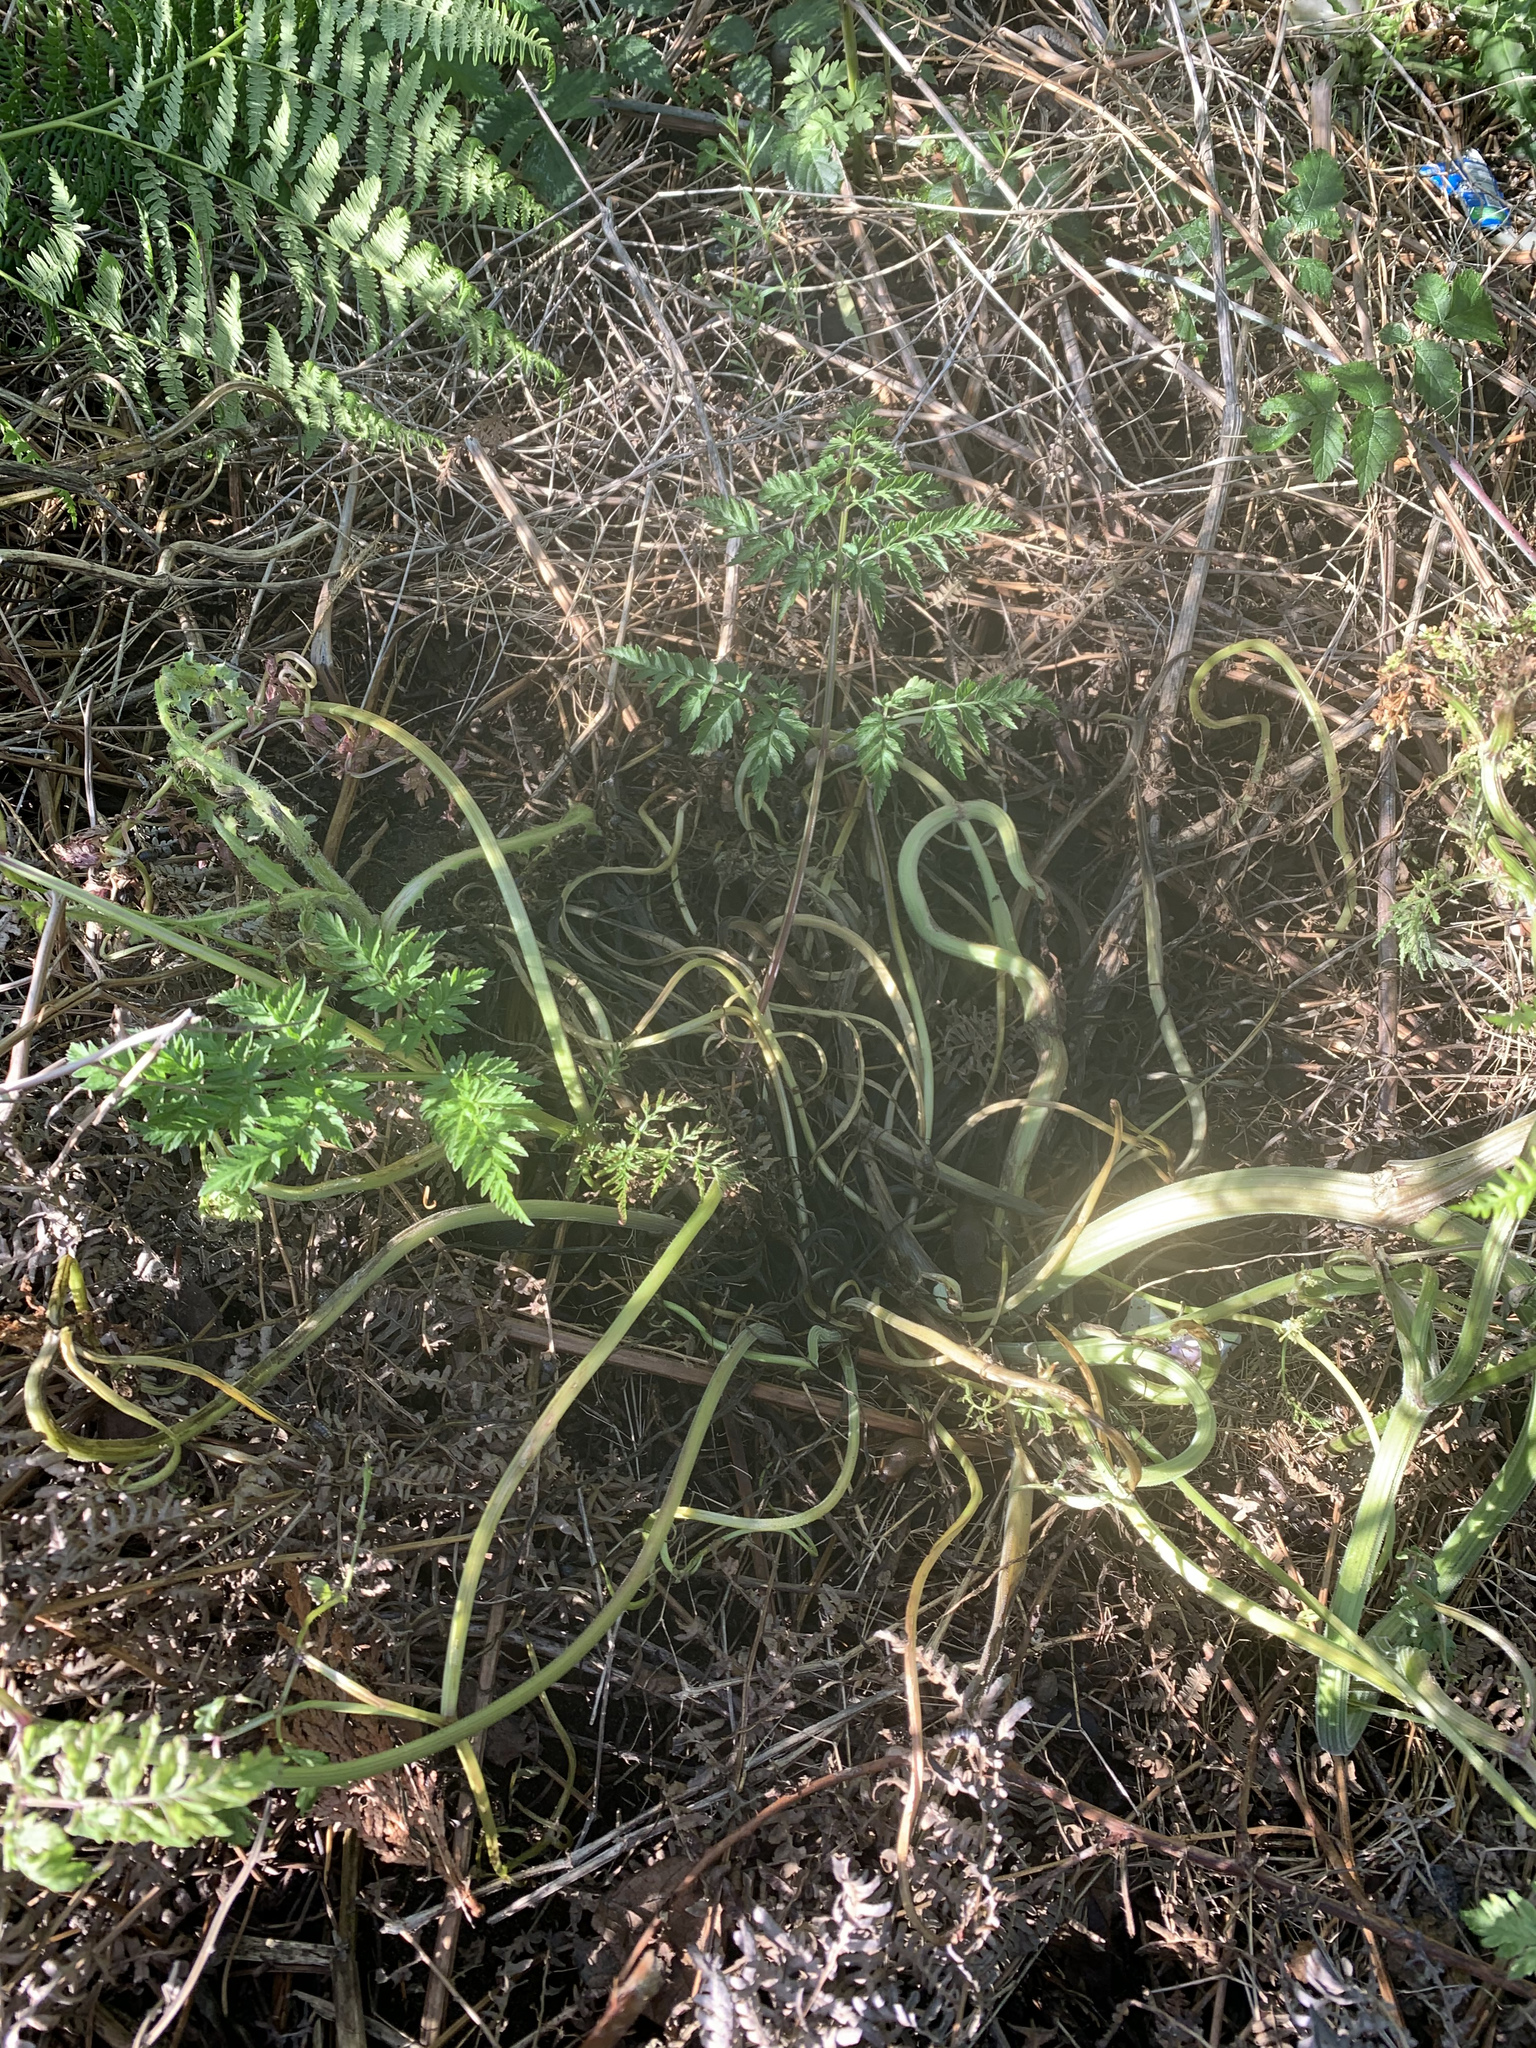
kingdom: Plantae
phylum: Tracheophyta
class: Magnoliopsida
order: Apiales
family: Apiaceae
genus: Anthriscus
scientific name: Anthriscus sylvestris
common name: Cow parsley
